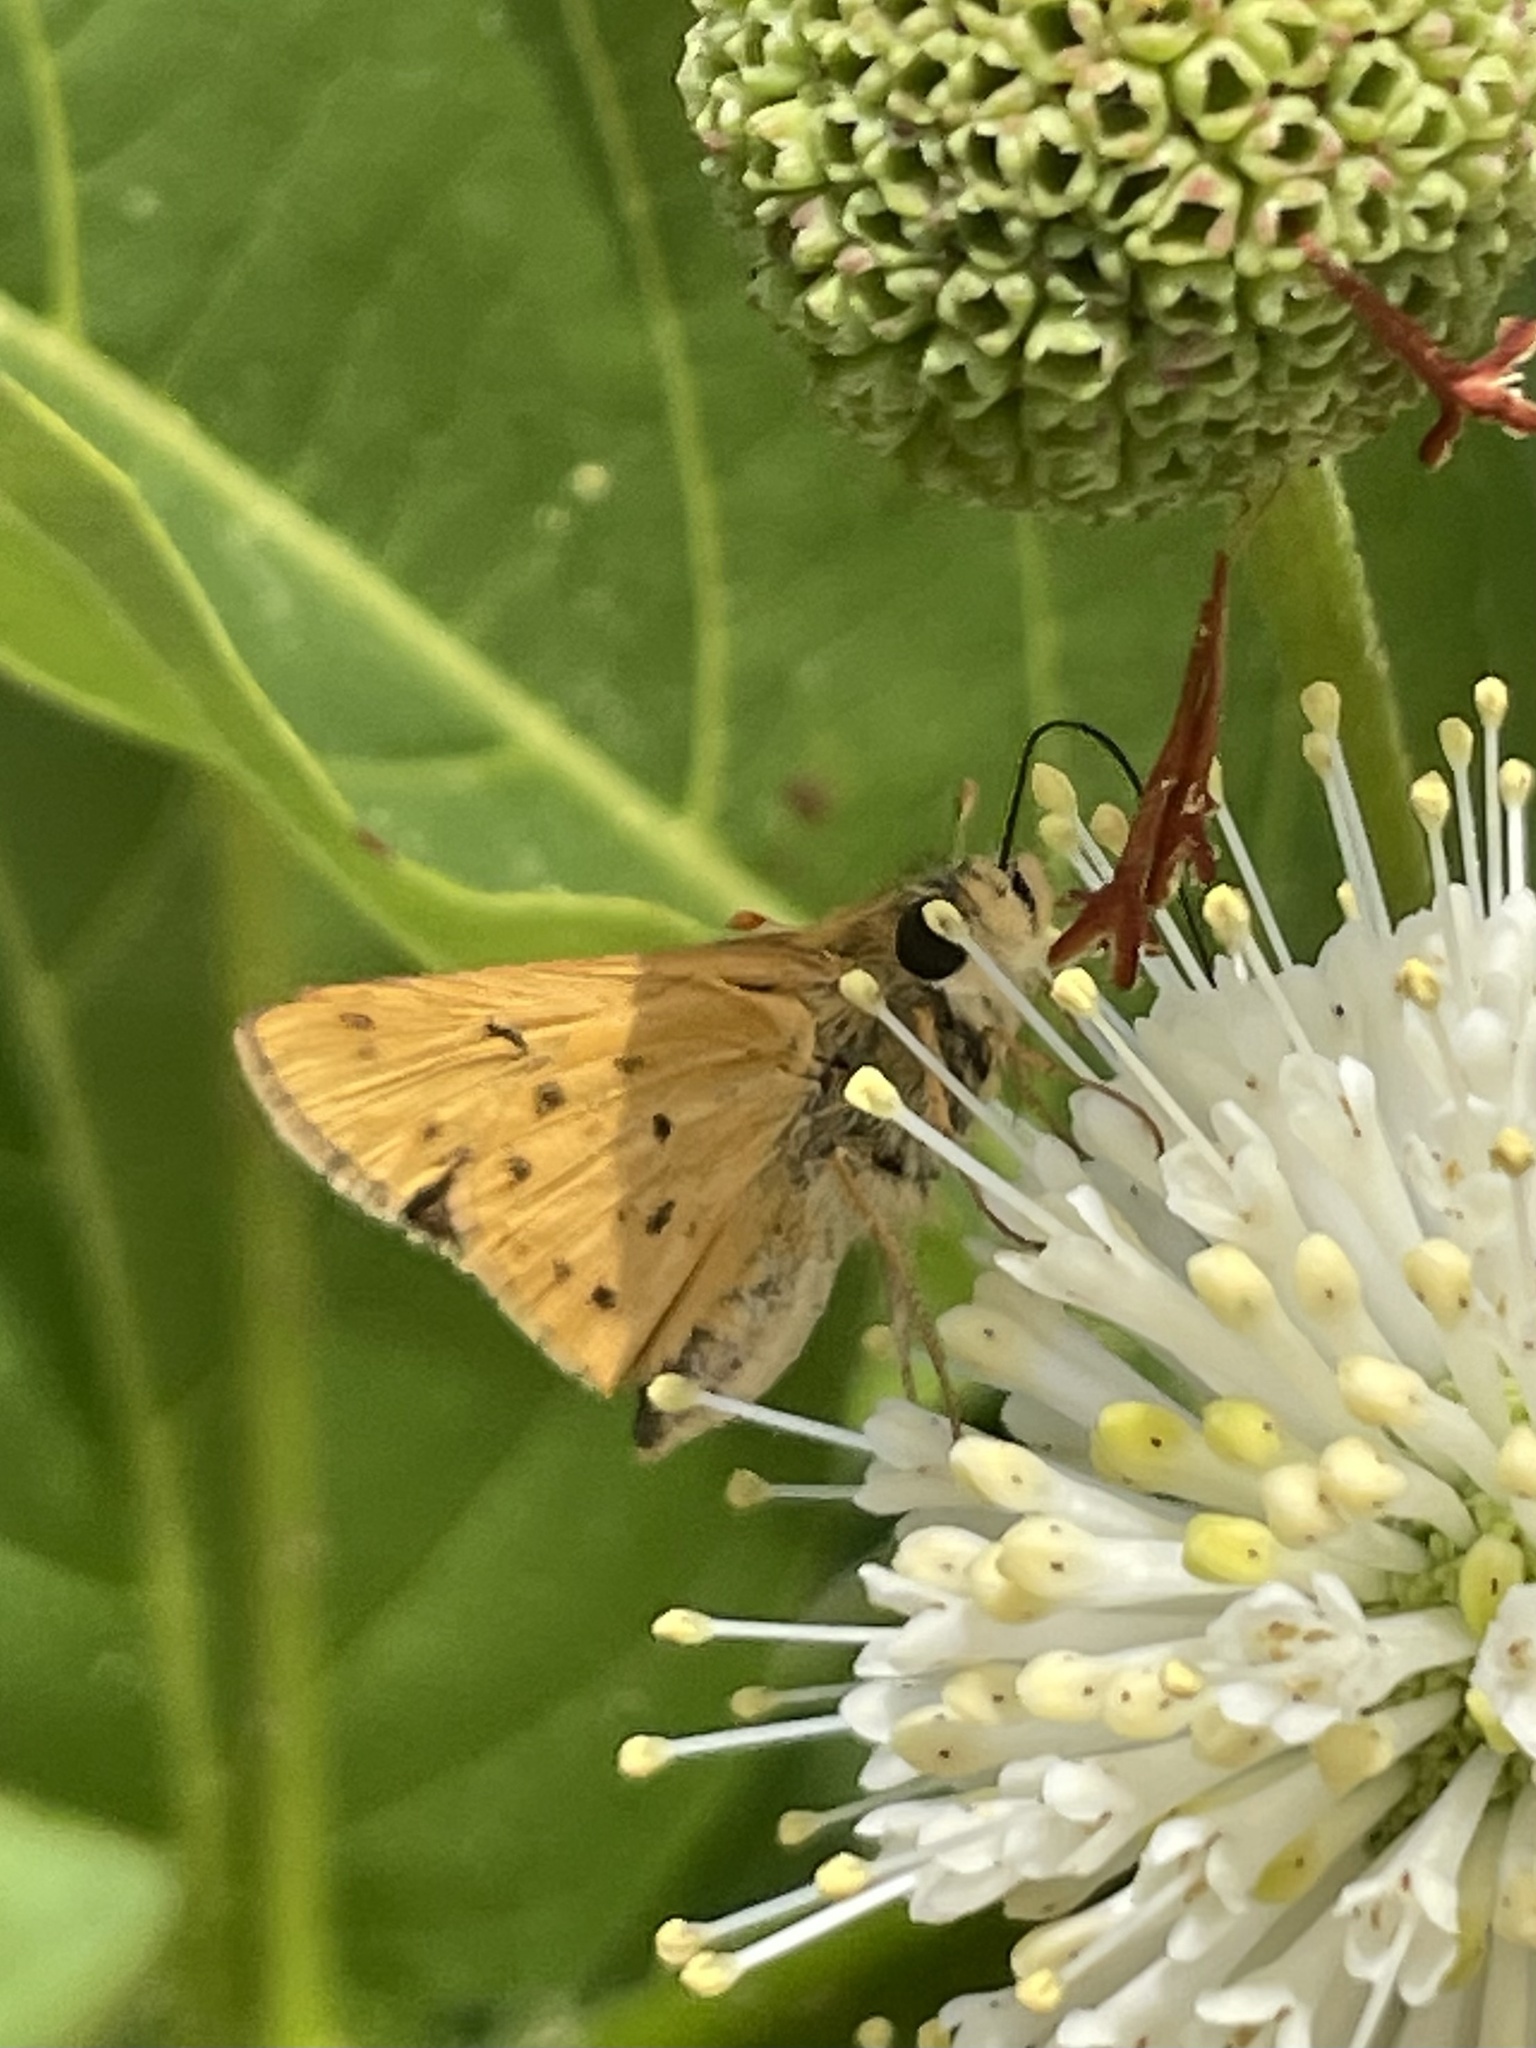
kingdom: Animalia
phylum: Arthropoda
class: Insecta
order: Lepidoptera
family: Hesperiidae
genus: Hylephila
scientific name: Hylephila phyleus
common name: Fiery skipper
